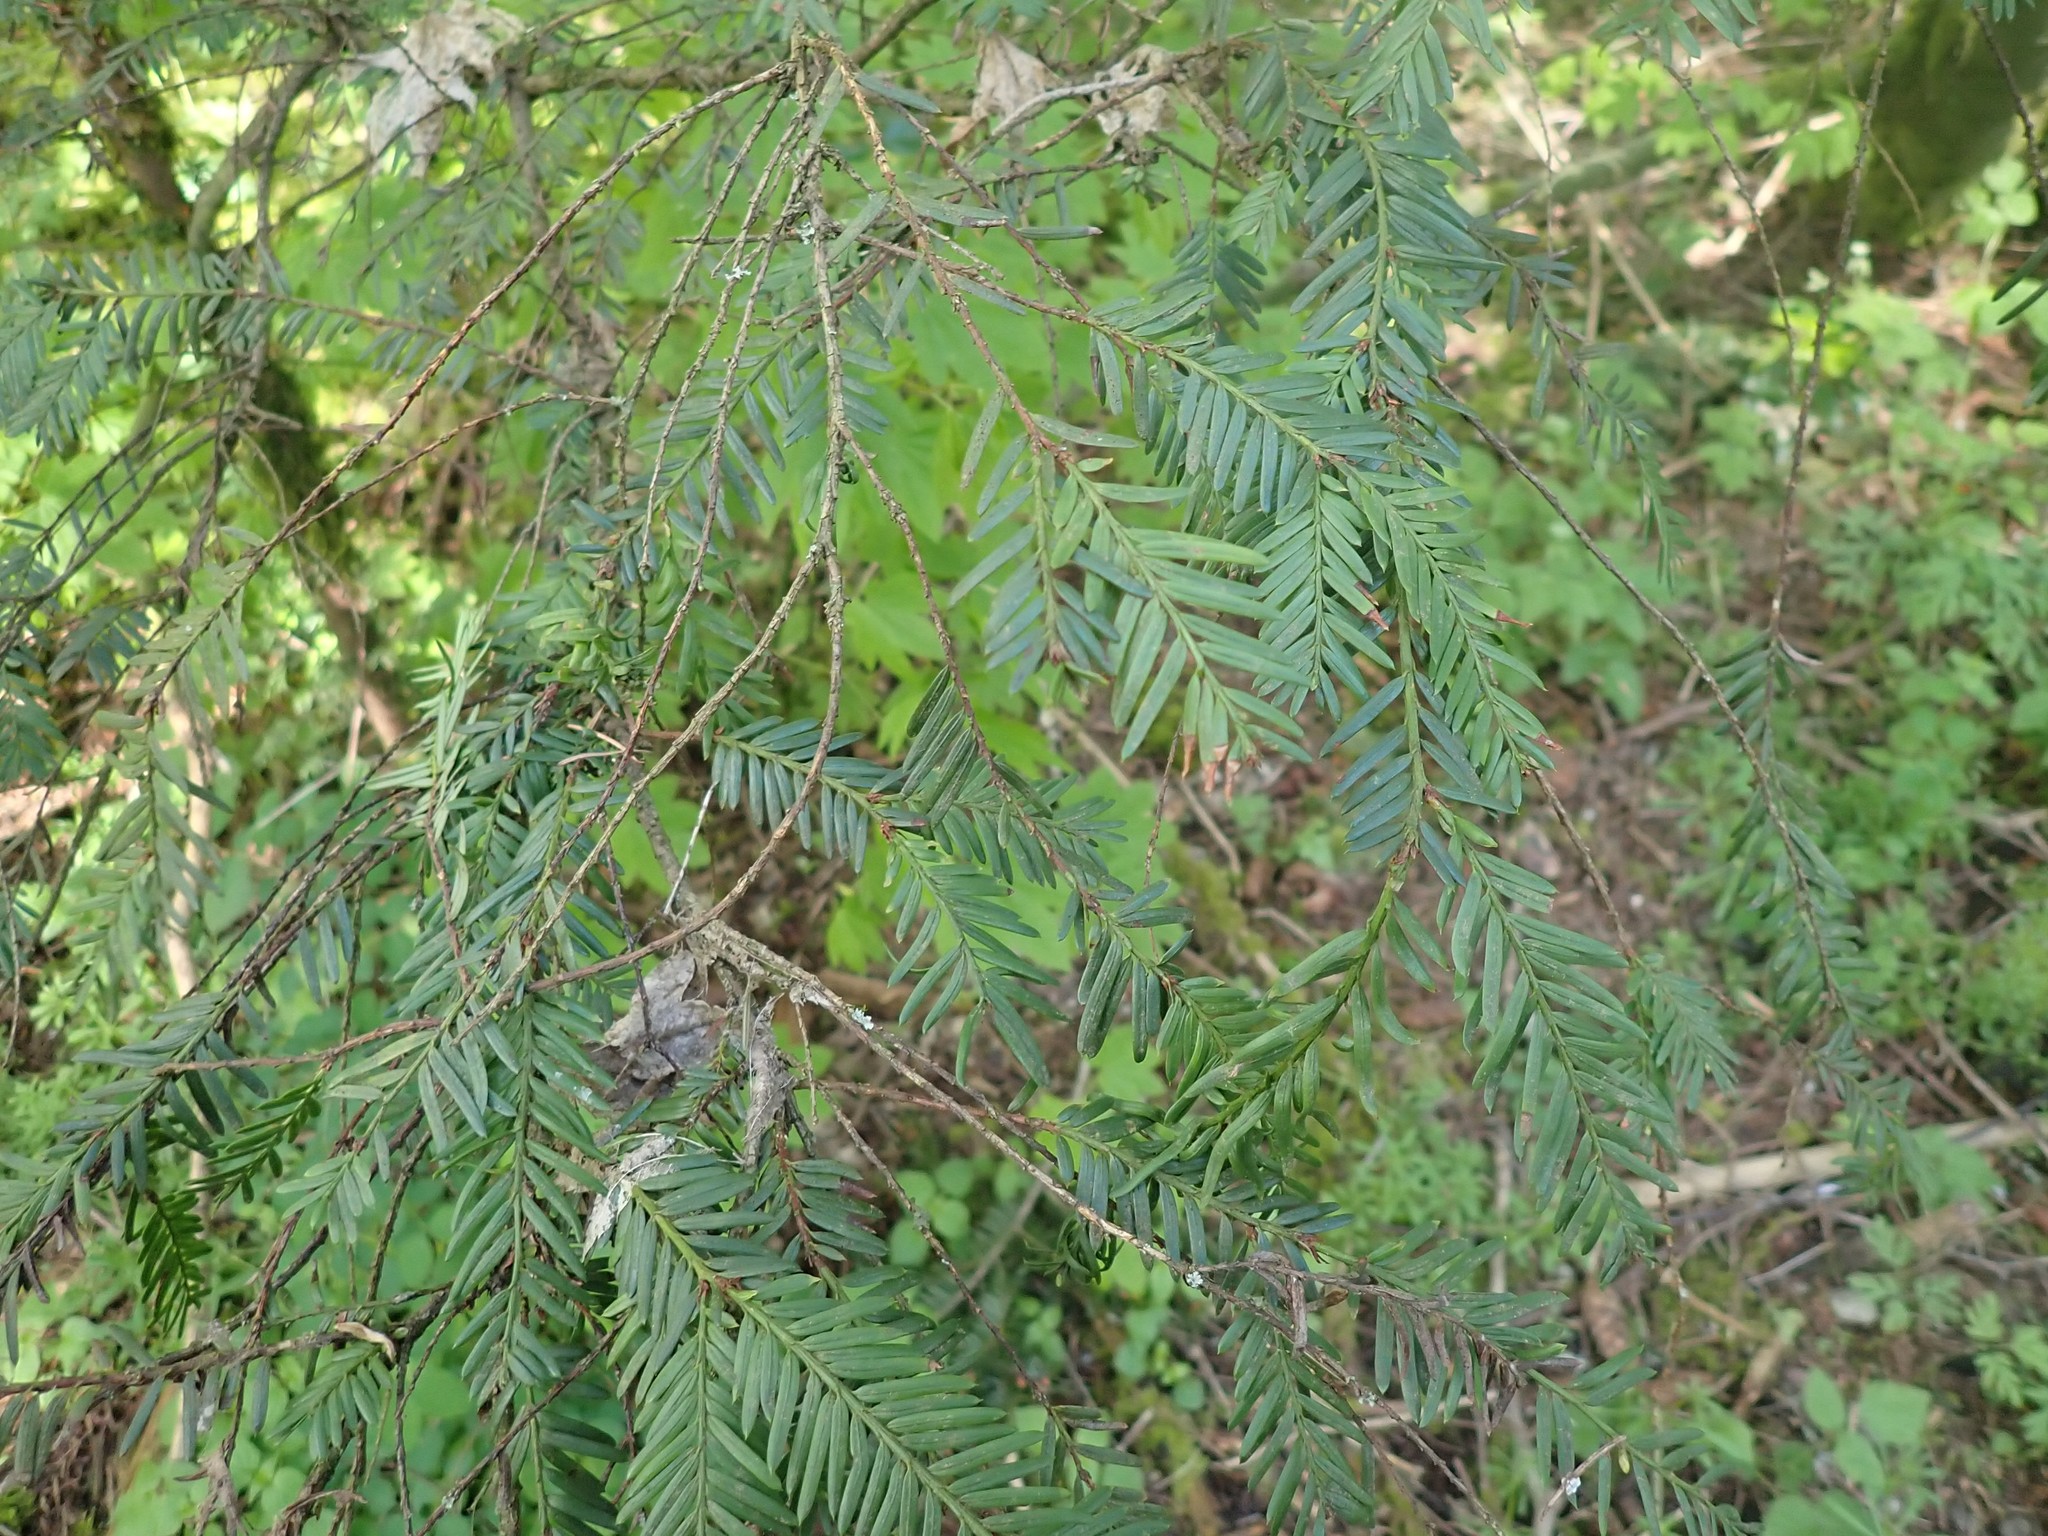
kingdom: Plantae
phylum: Tracheophyta
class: Pinopsida
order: Pinales
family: Taxaceae
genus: Taxus
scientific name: Taxus brevifolia
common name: Pacific yew
